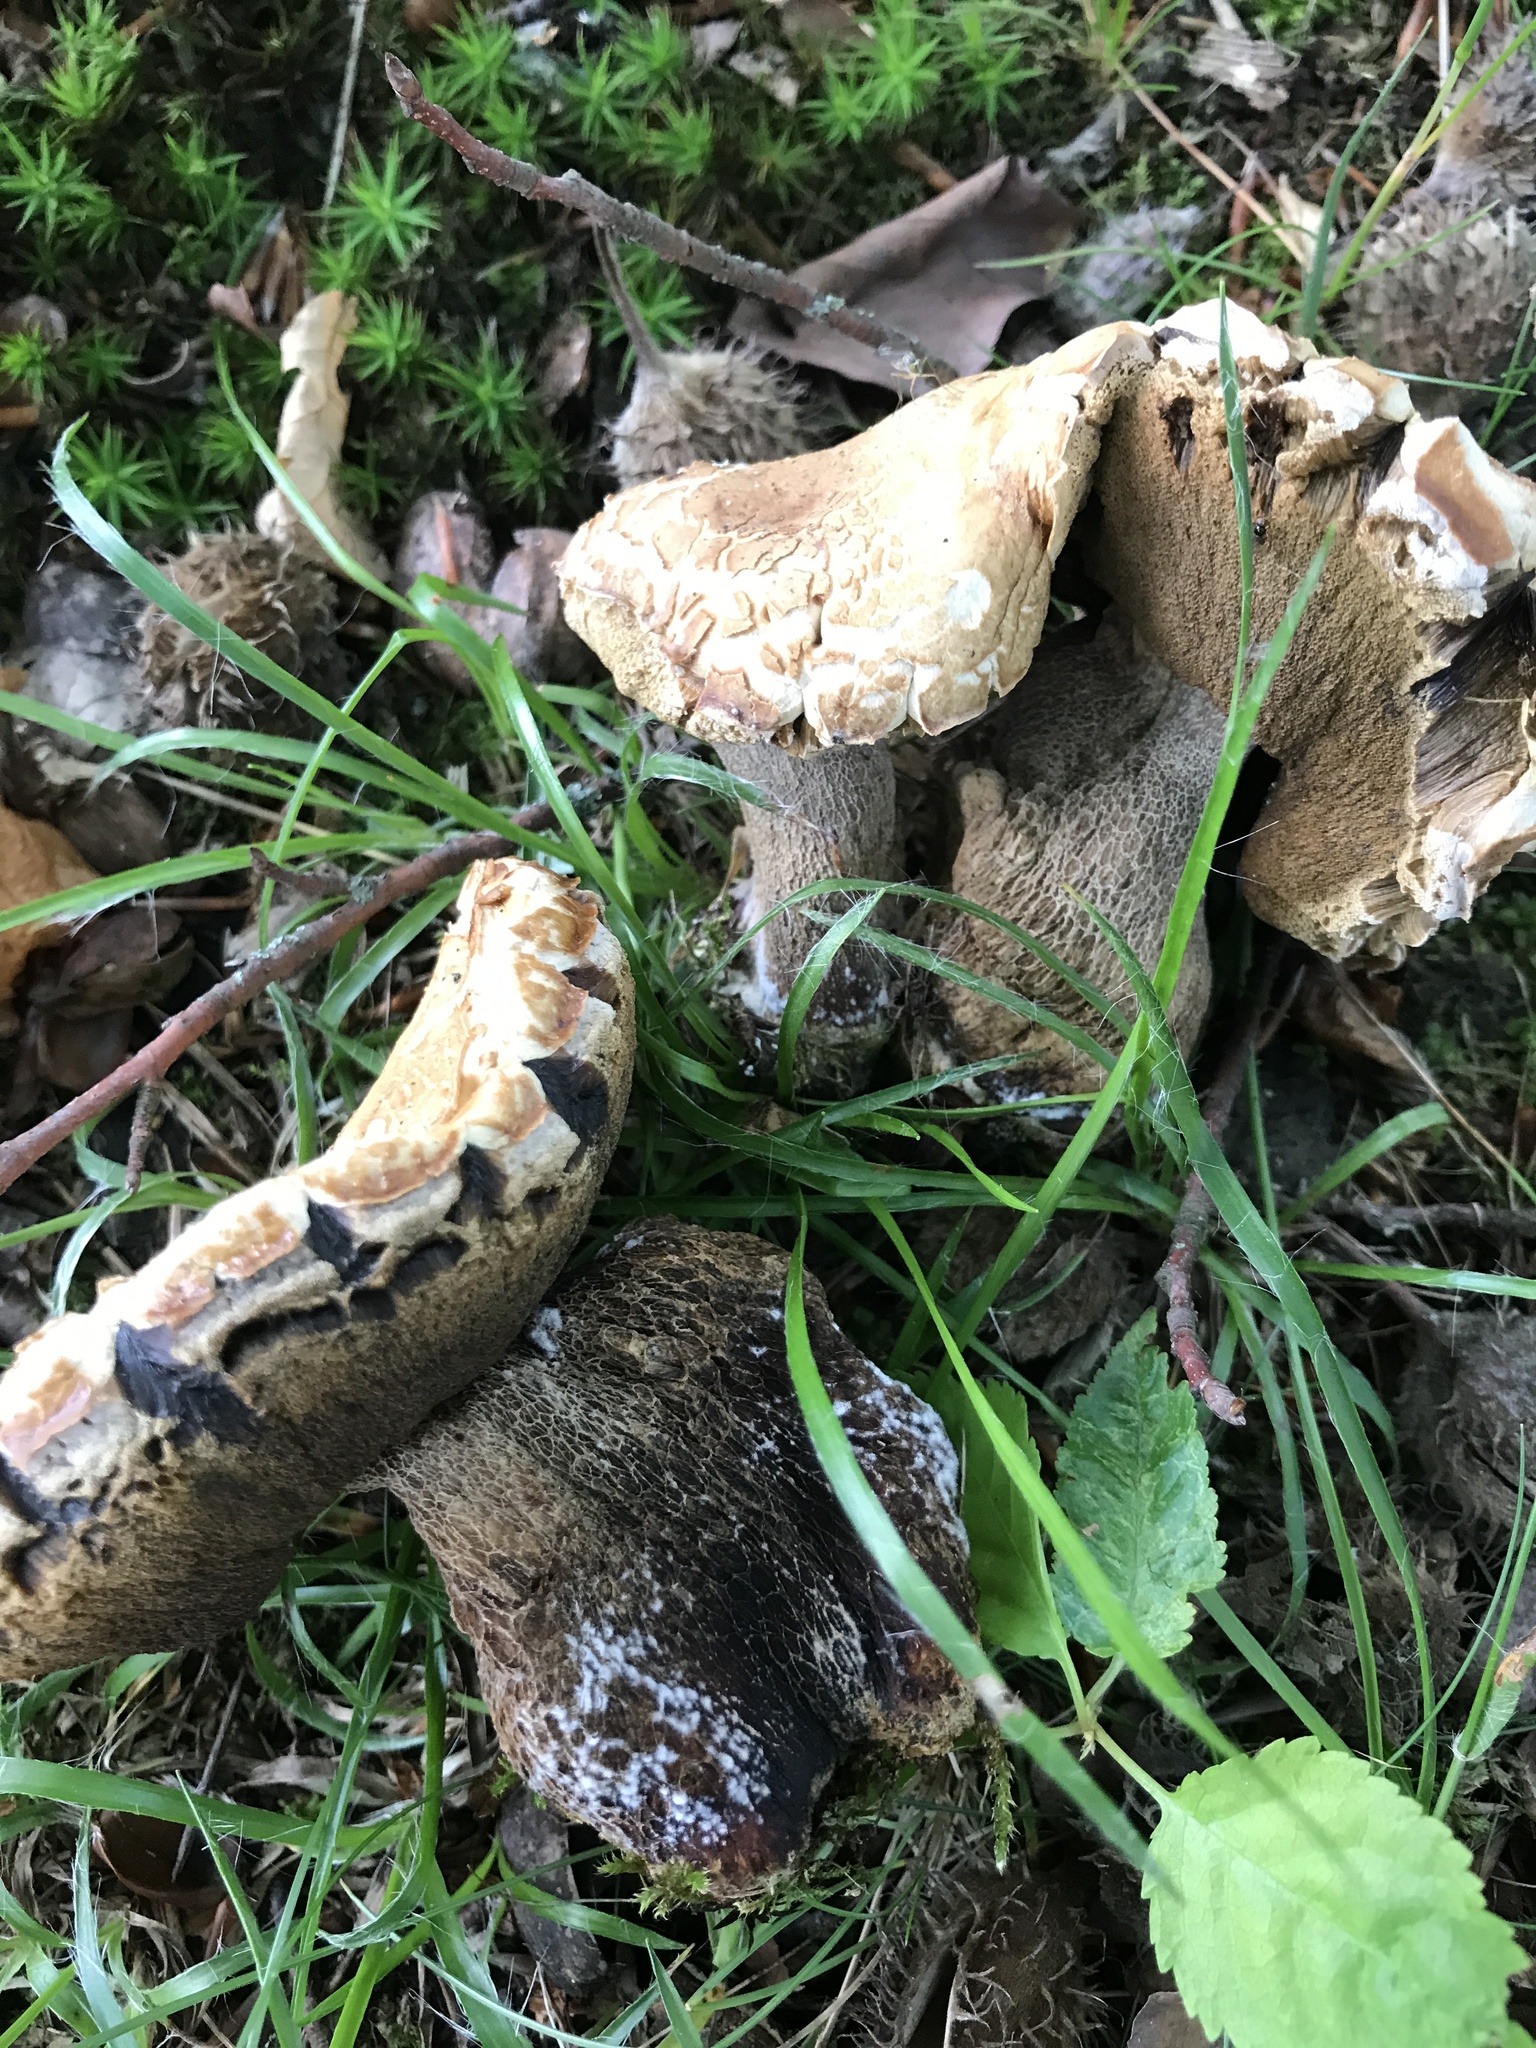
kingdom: Fungi
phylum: Basidiomycota
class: Agaricomycetes
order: Boletales
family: Boletaceae
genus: Boletus
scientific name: Boletus reticulatus
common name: Summer bolete
